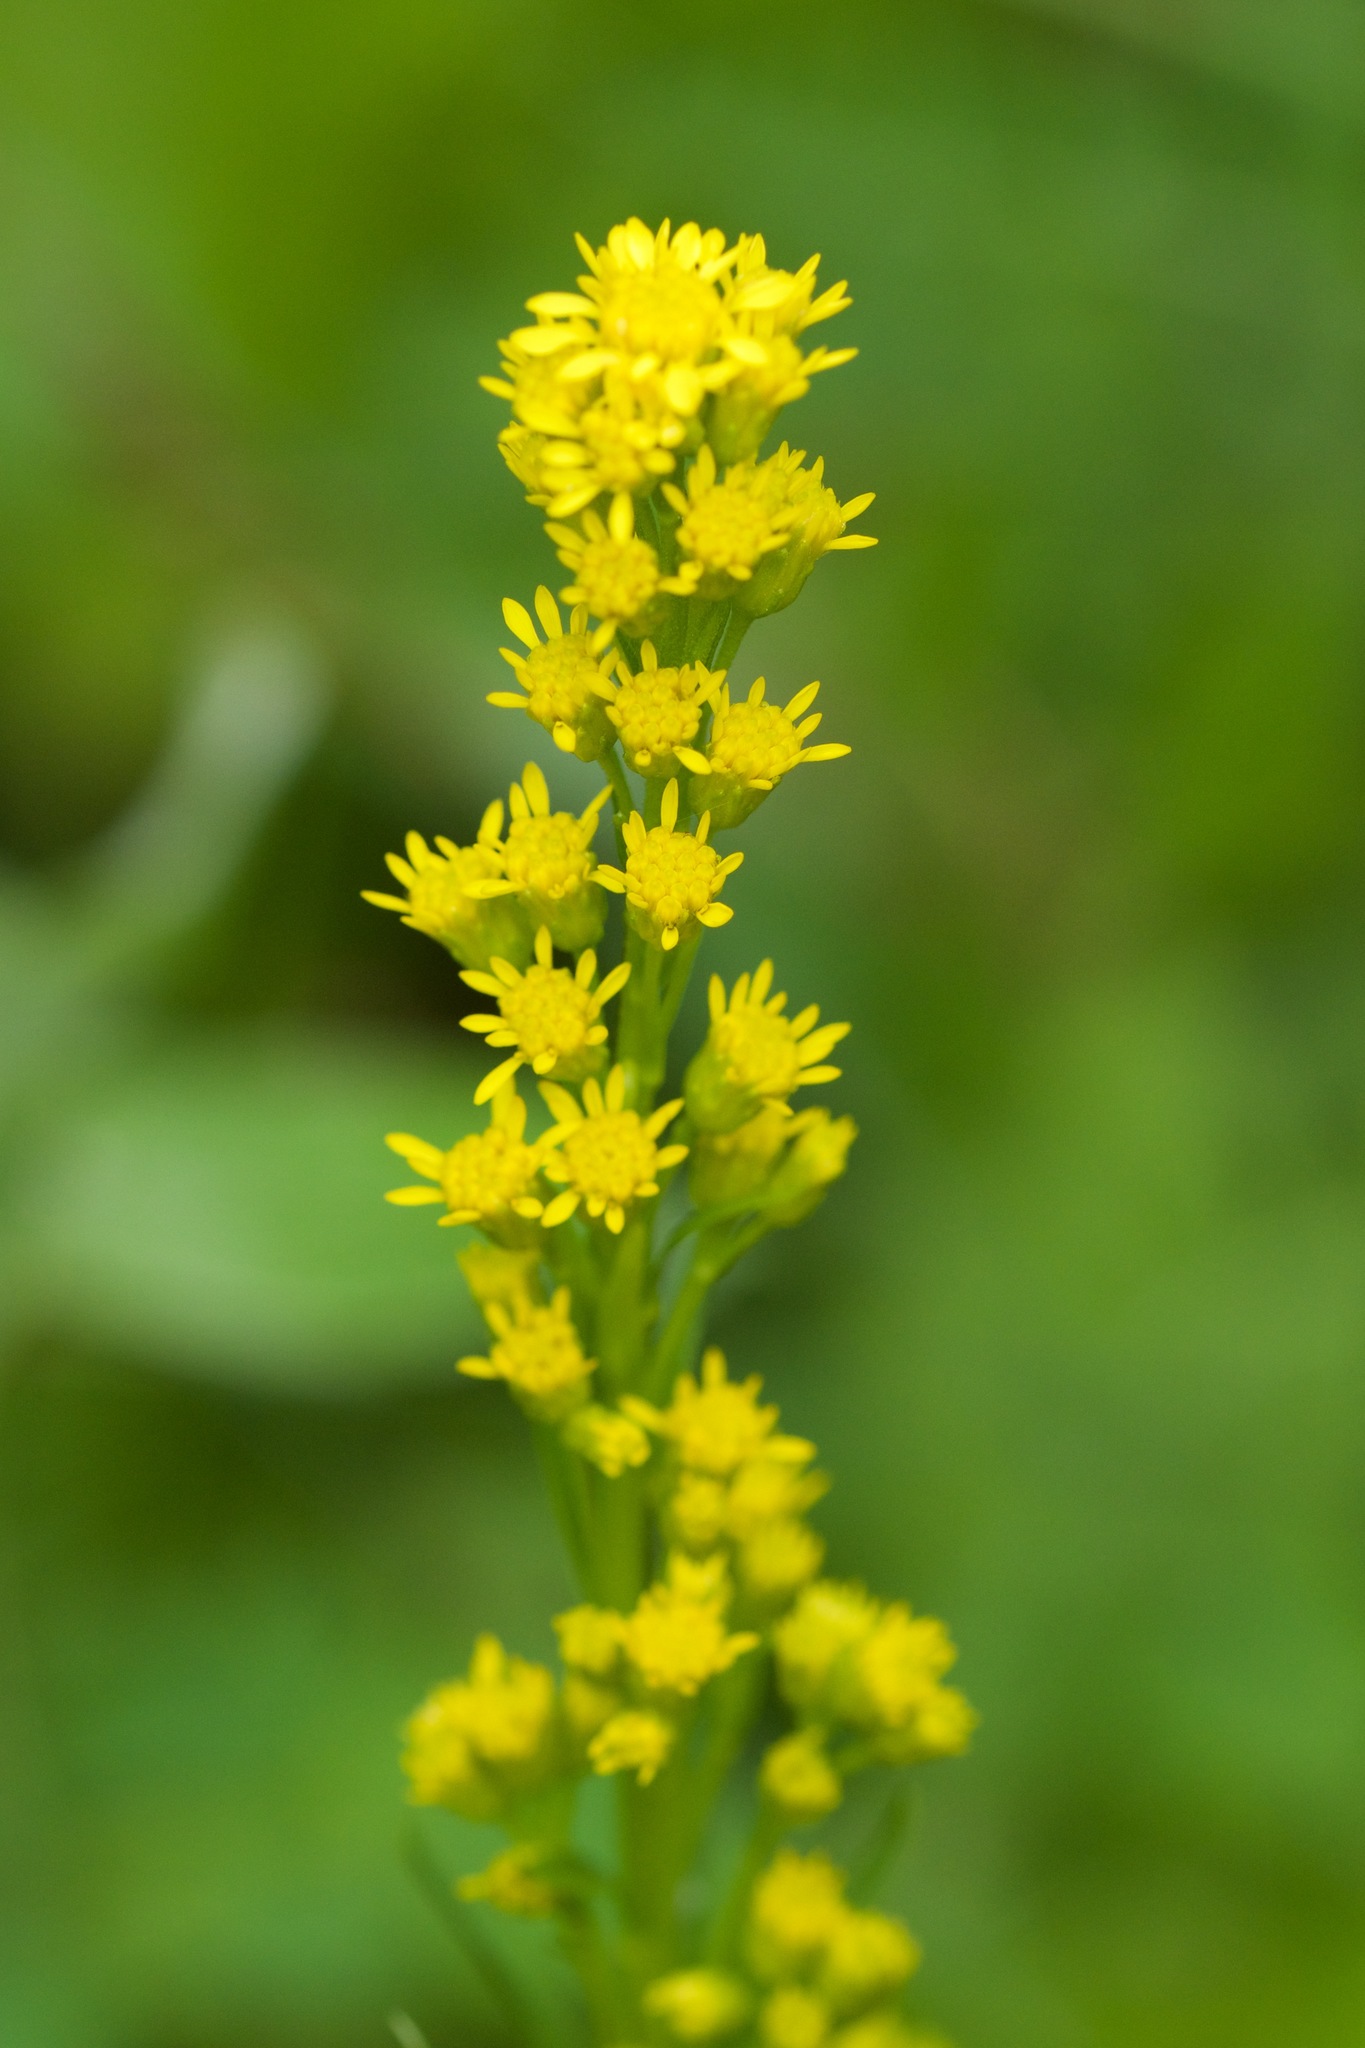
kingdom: Plantae
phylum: Tracheophyta
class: Magnoliopsida
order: Asterales
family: Asteraceae
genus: Solidago
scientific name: Solidago uliginosa
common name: Bog goldenrod
